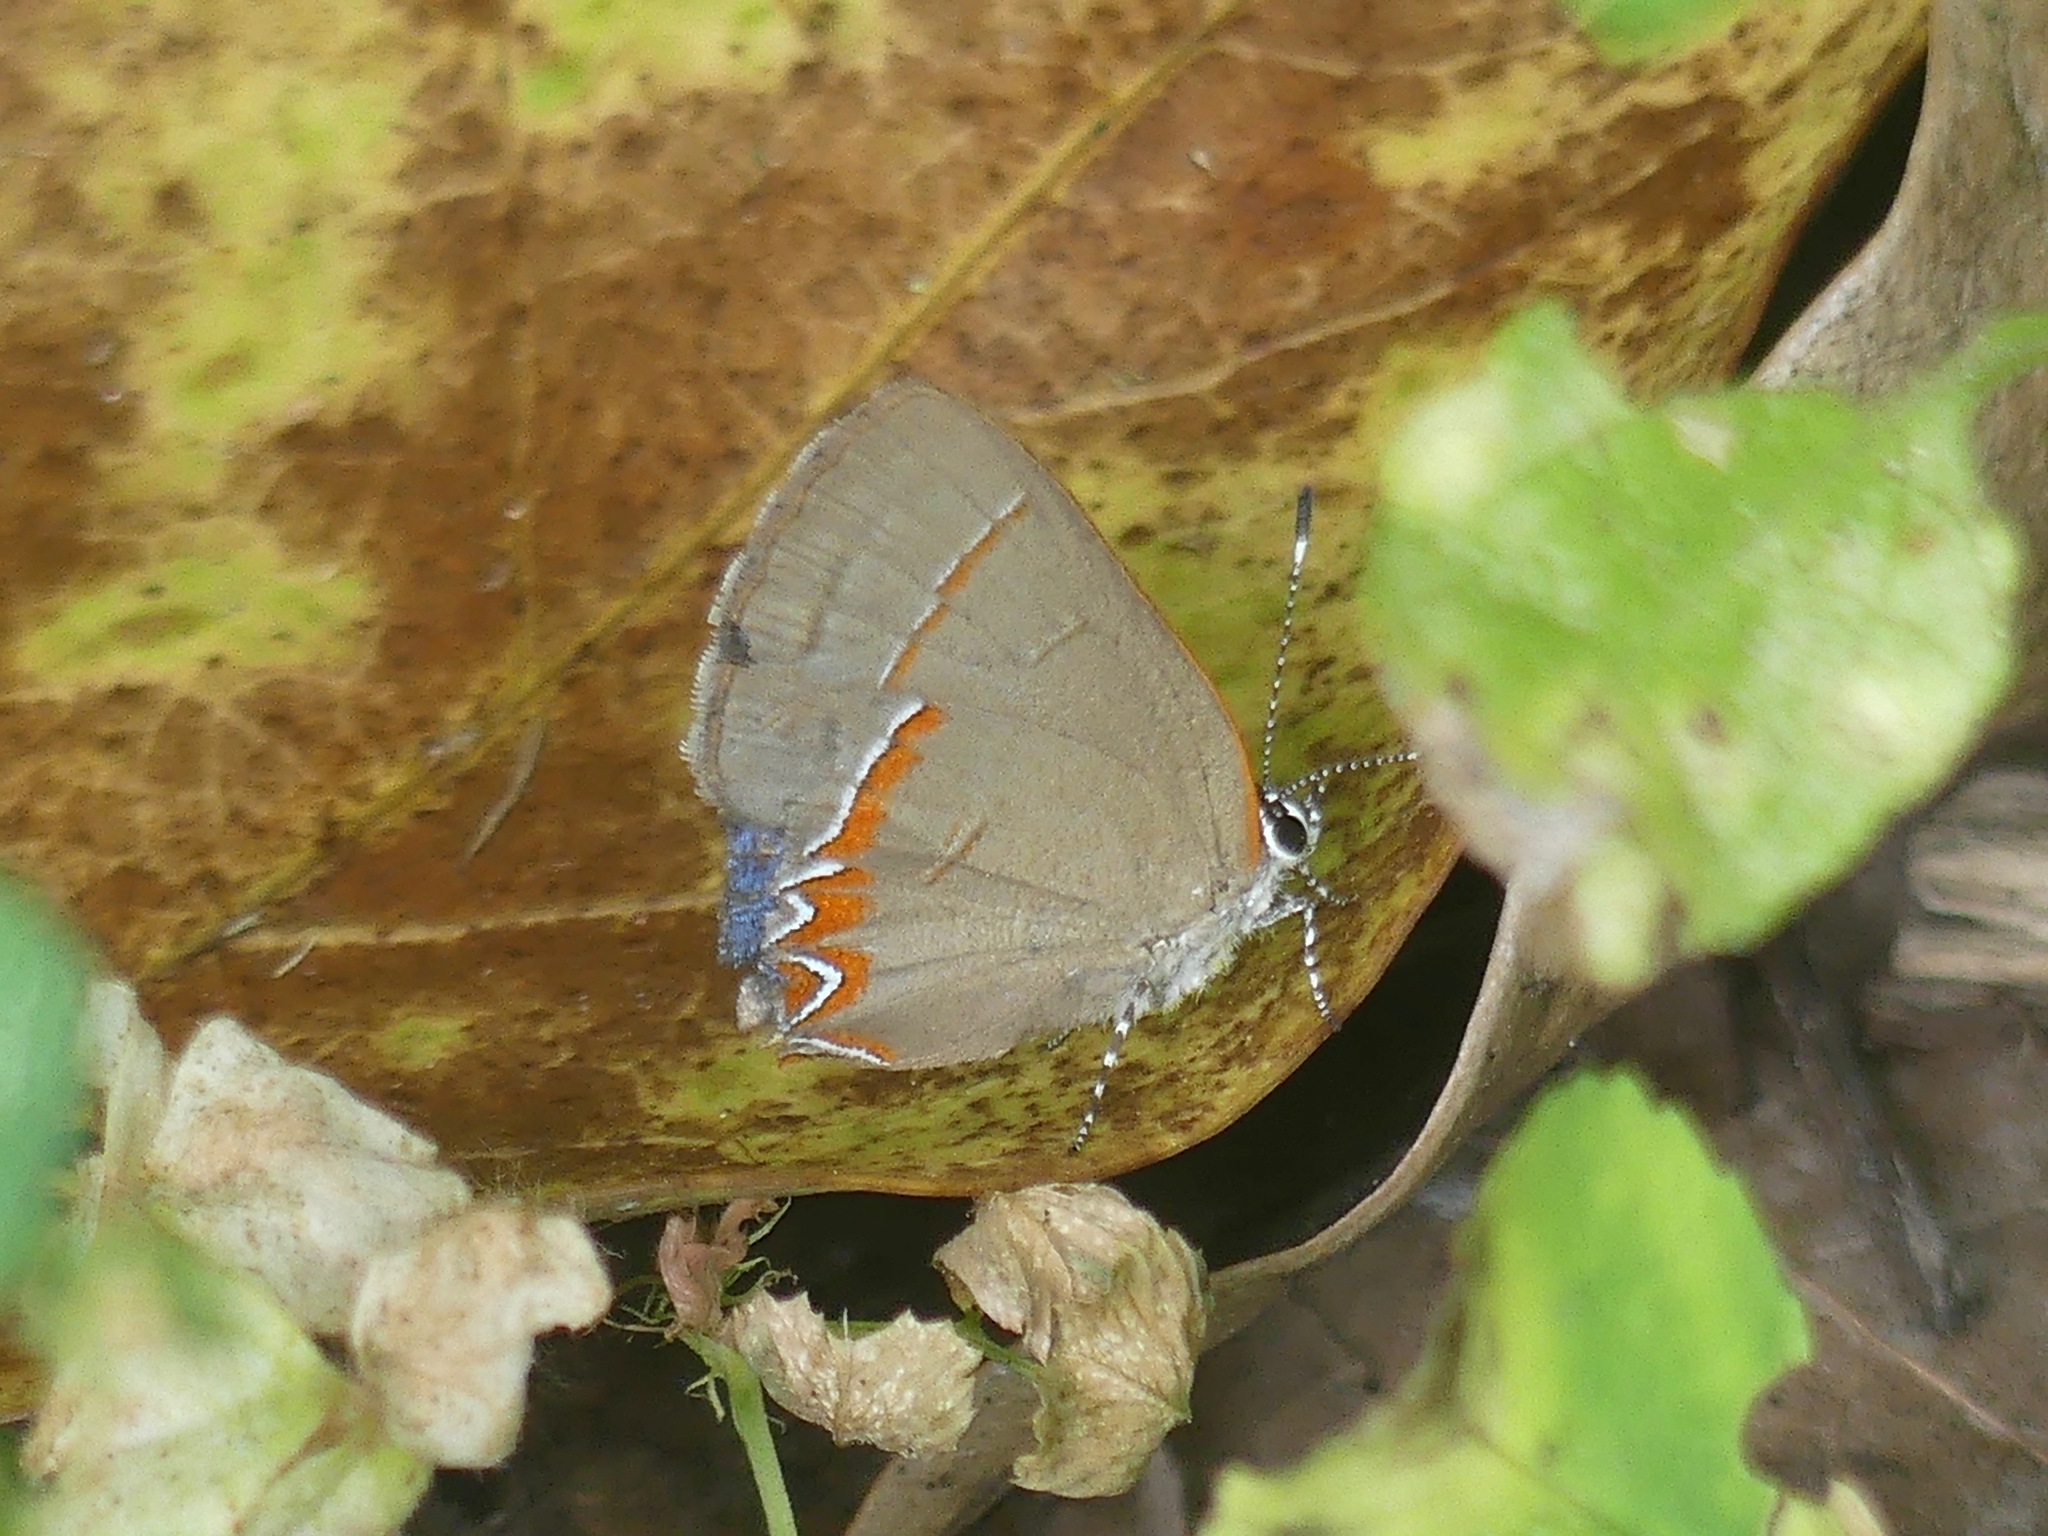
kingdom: Animalia
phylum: Arthropoda
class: Insecta
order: Lepidoptera
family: Lycaenidae
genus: Calycopis
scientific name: Calycopis cecrops
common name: Red-banded hairstreak
